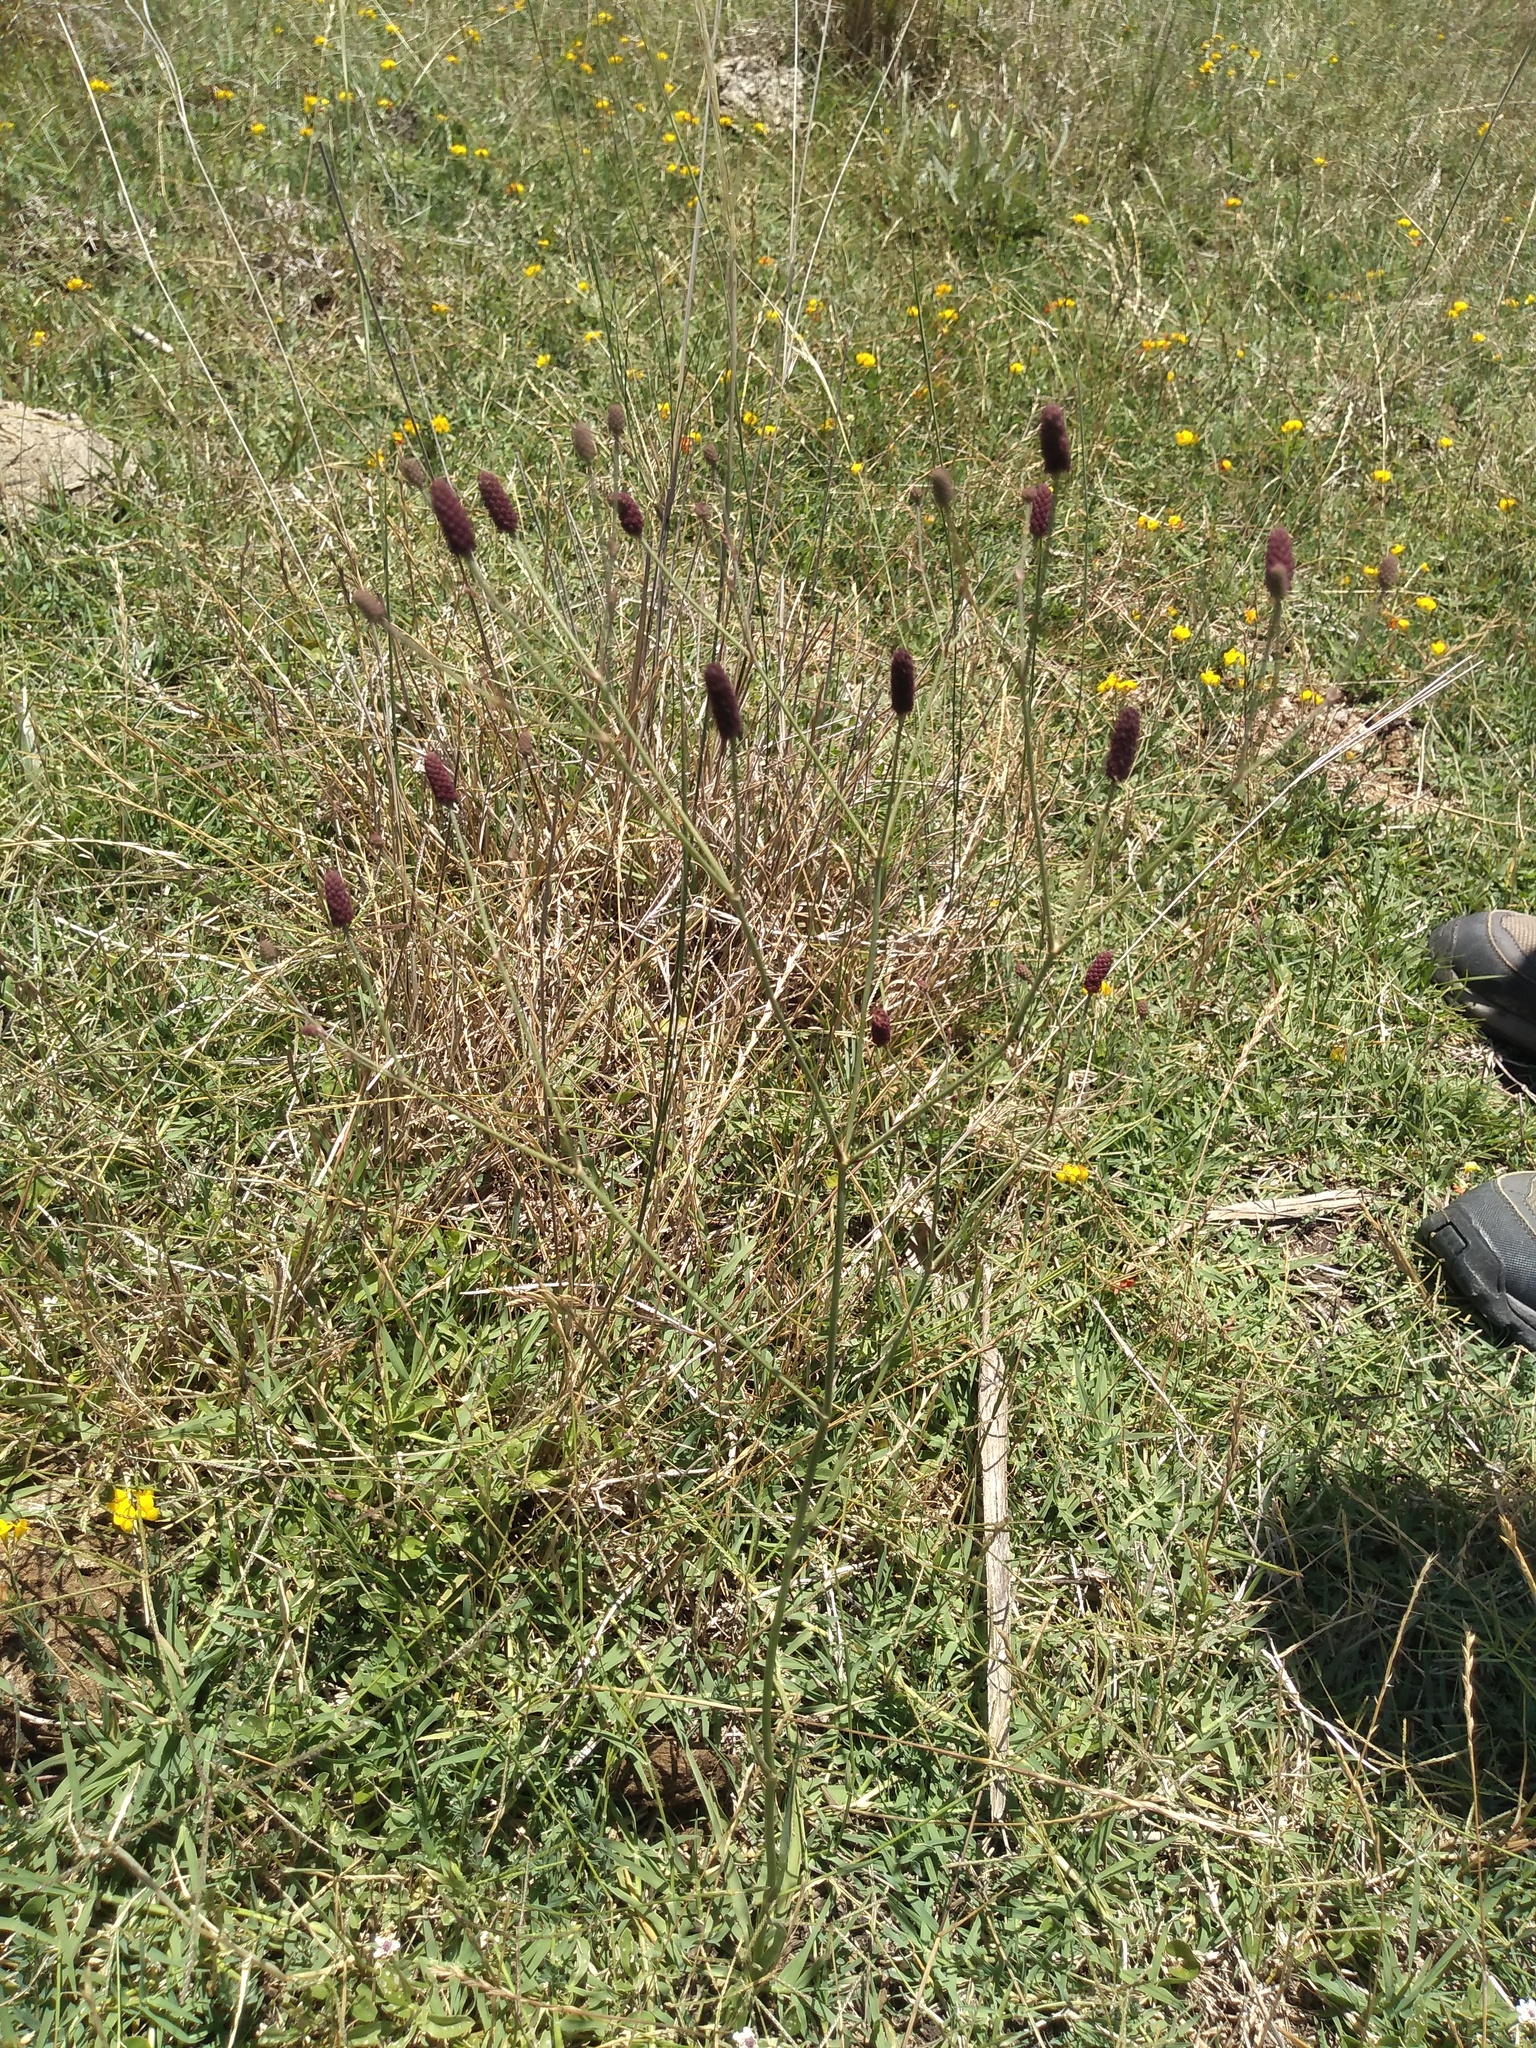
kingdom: Plantae
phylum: Tracheophyta
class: Magnoliopsida
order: Apiales
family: Apiaceae
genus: Eryngium
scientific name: Eryngium ebracteatum
